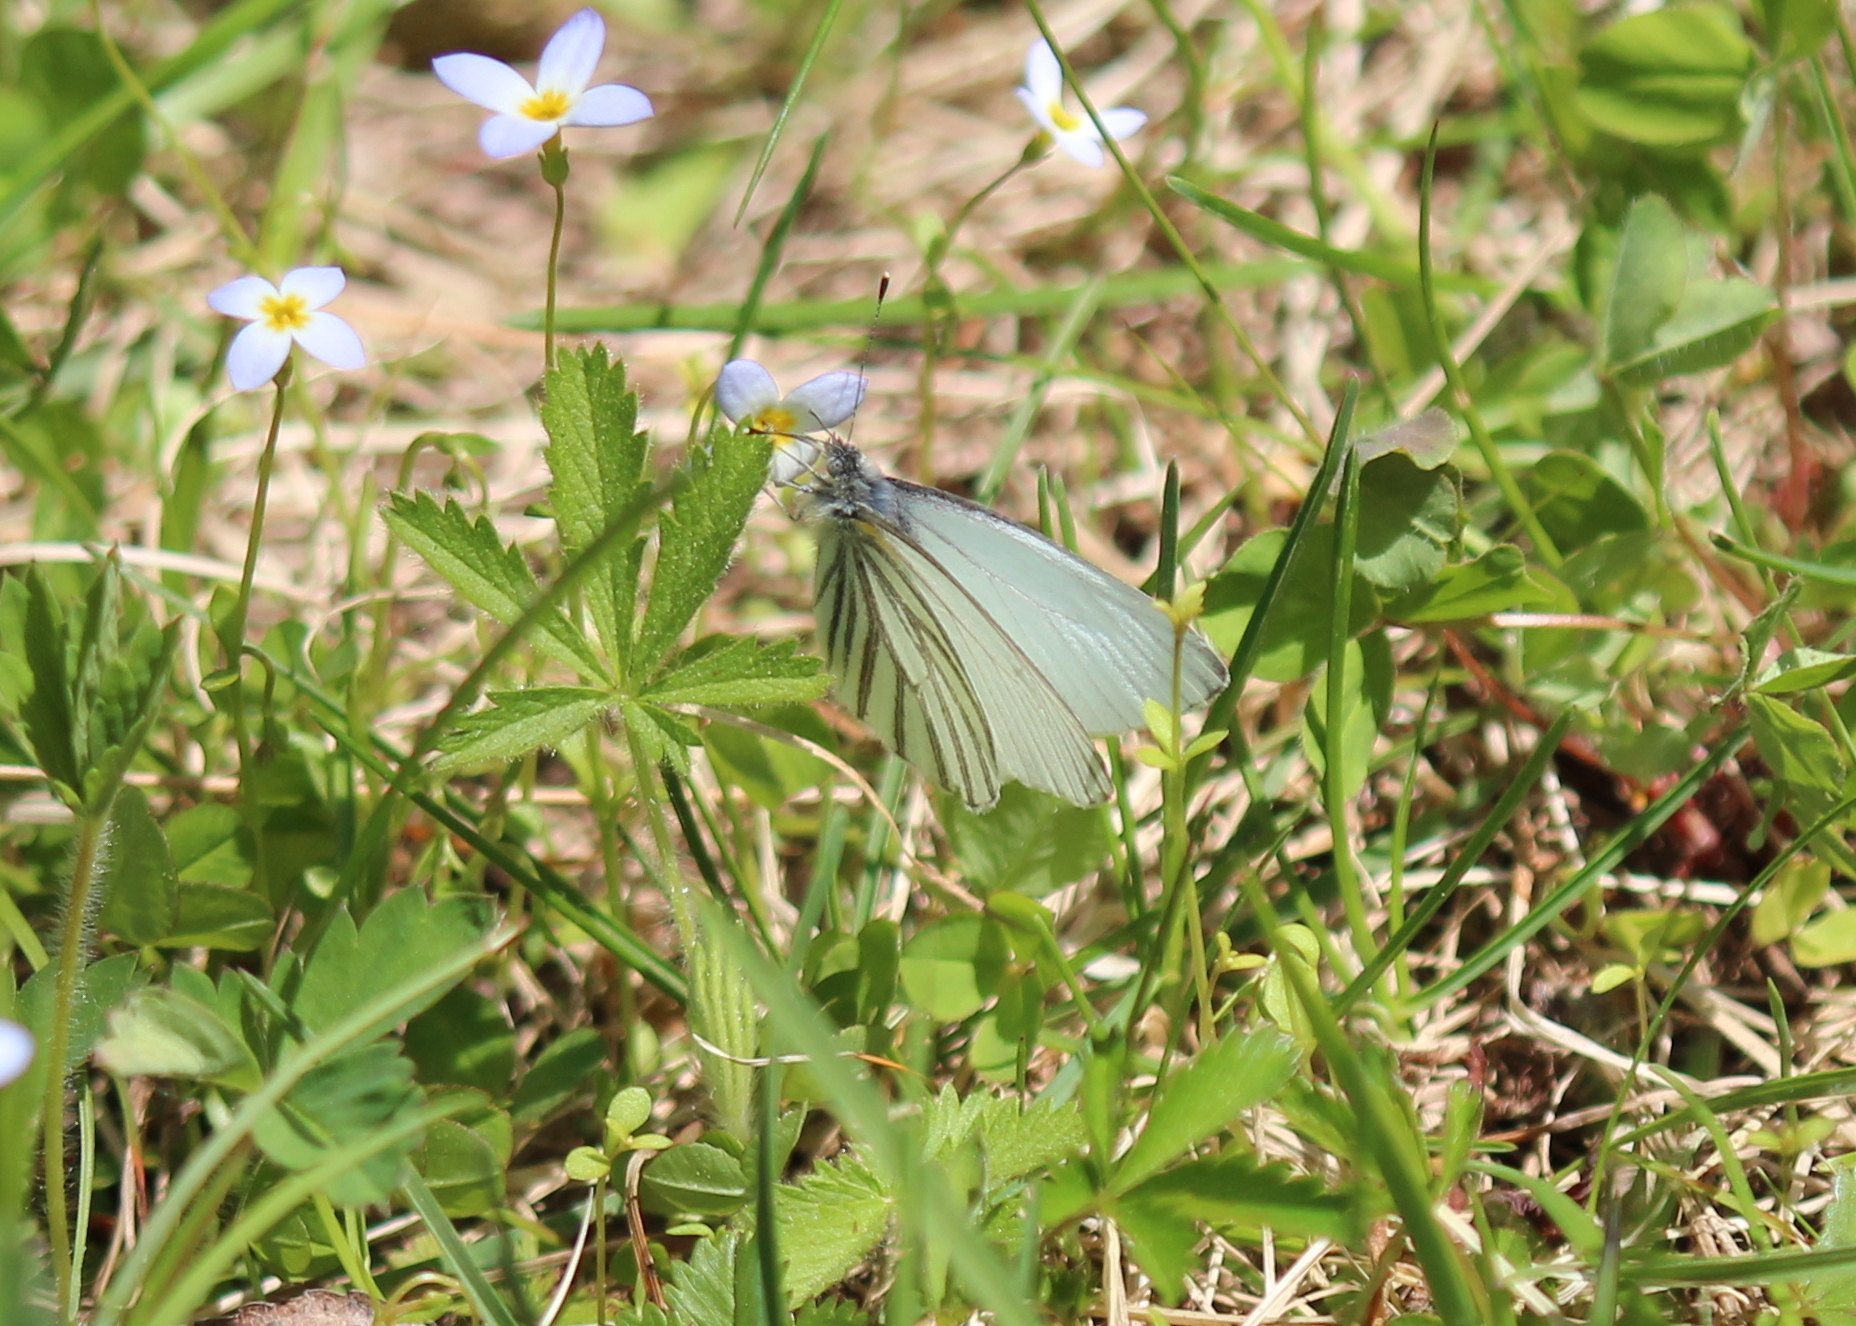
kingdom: Animalia
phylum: Arthropoda
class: Insecta
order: Lepidoptera
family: Pieridae
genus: Pieris
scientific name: Pieris oleracea
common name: Mustard white
